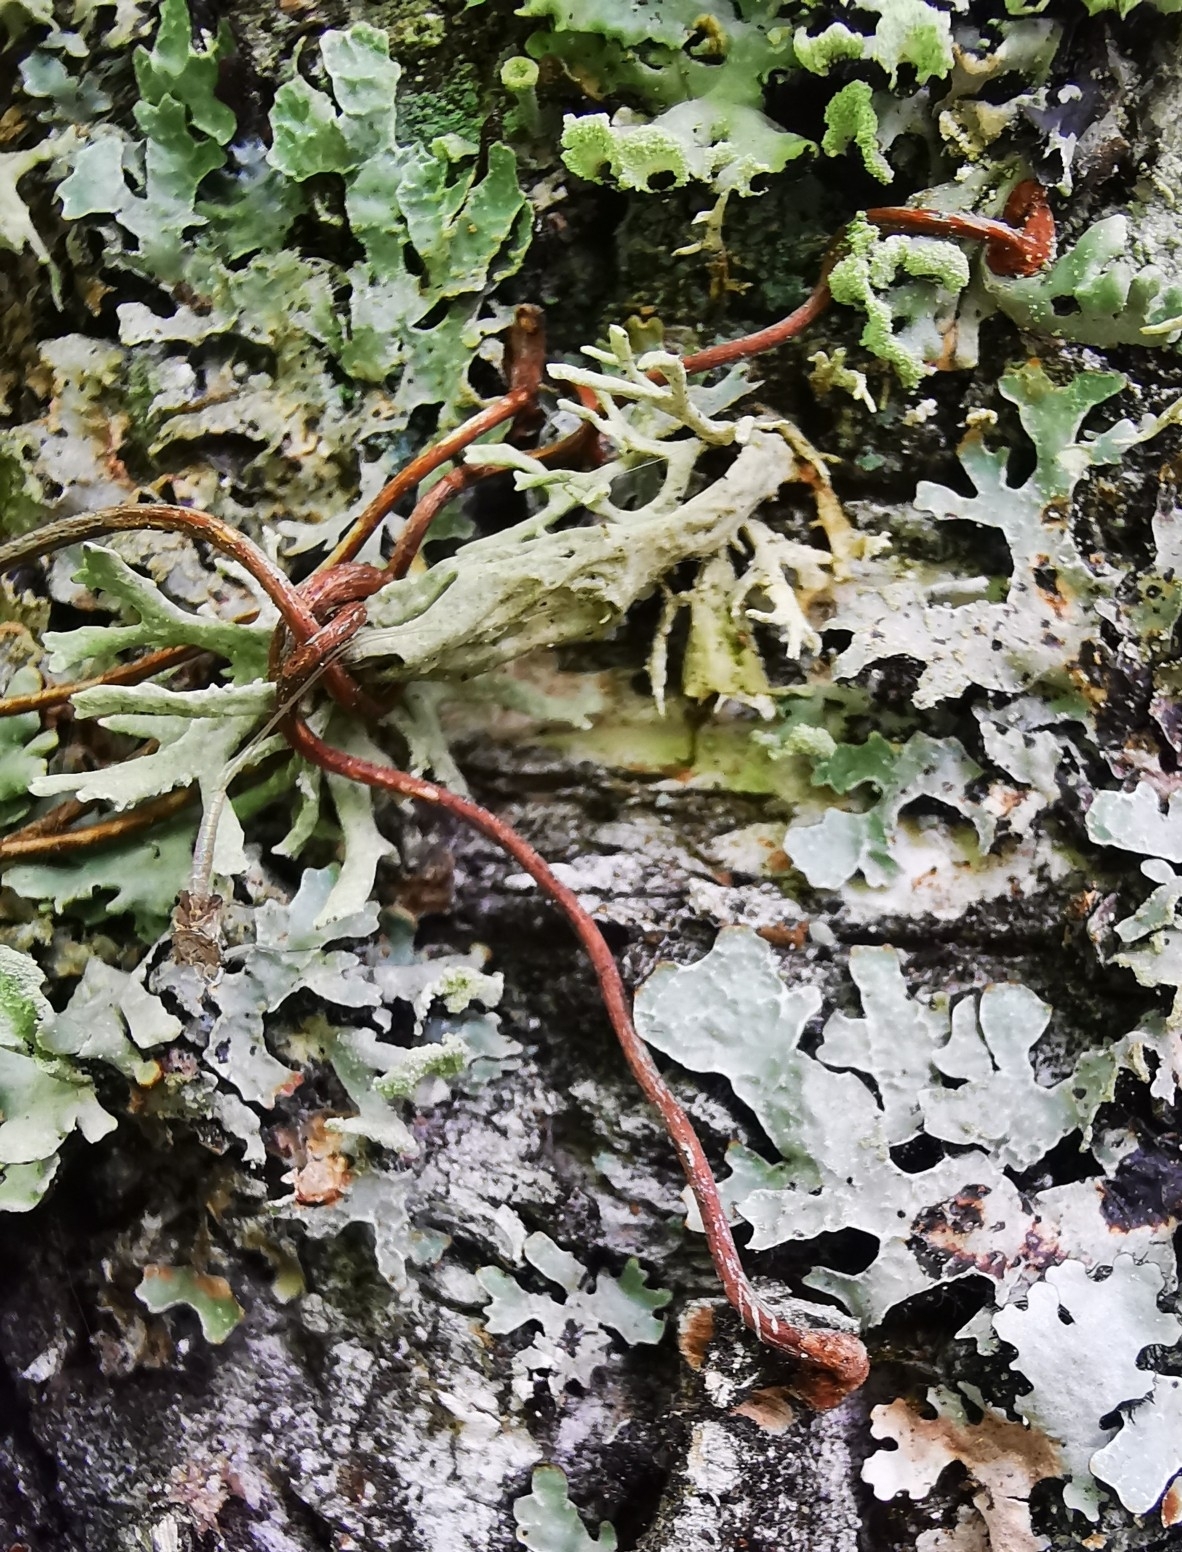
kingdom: Plantae
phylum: Tracheophyta
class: Magnoliopsida
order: Vitales
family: Vitaceae
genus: Parthenocissus
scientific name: Parthenocissus quinquefolia
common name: Virginia-creeper
